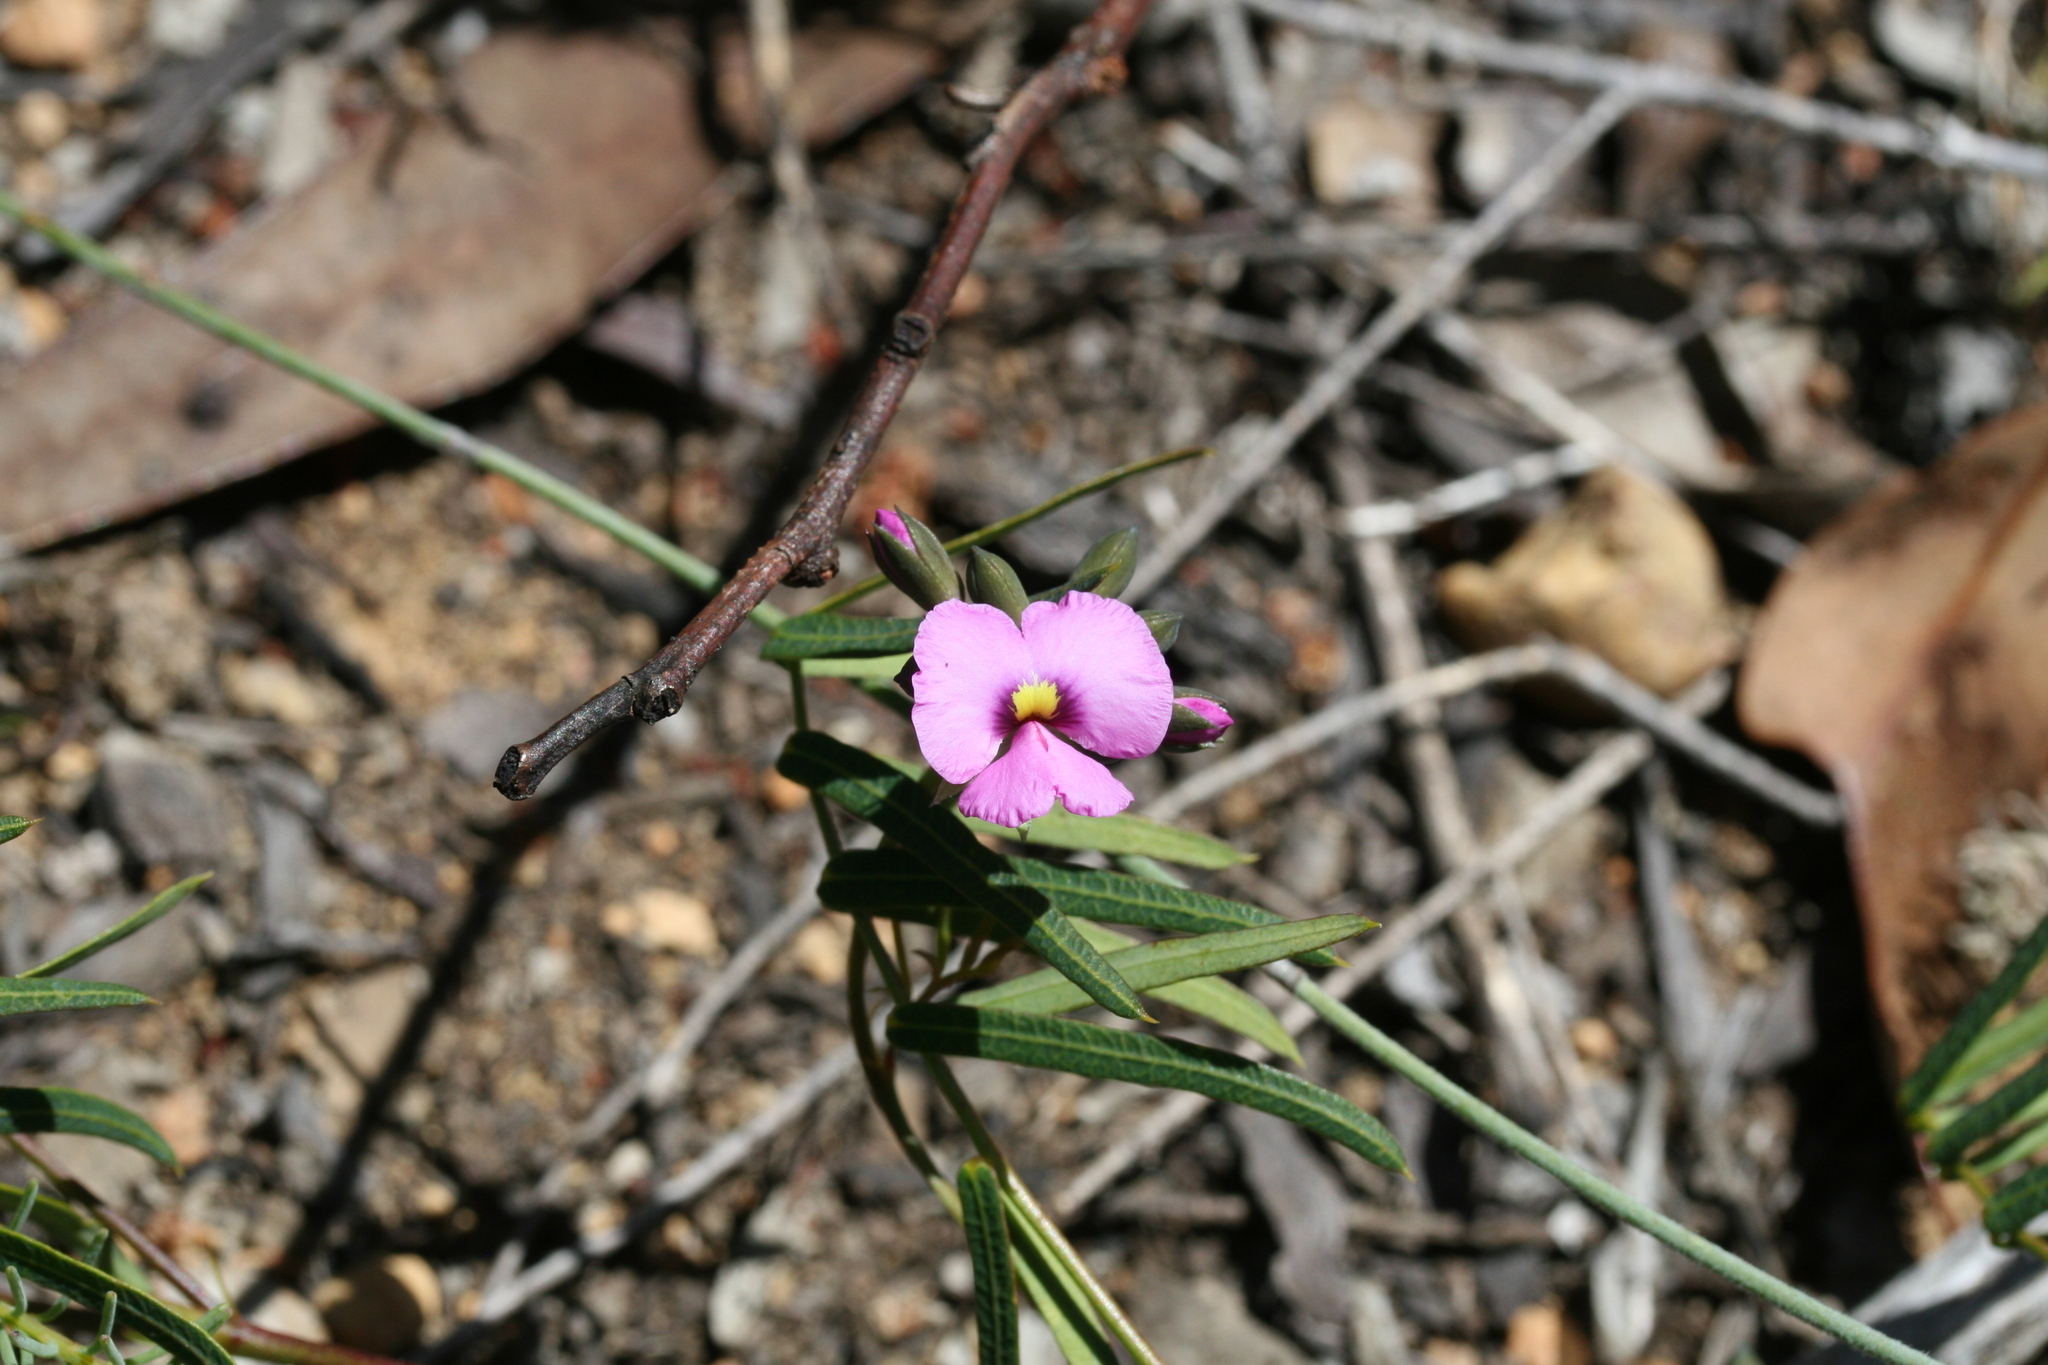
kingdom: Plantae
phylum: Tracheophyta
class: Magnoliopsida
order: Fabales
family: Fabaceae
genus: Gompholobium
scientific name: Gompholobium knightianum
